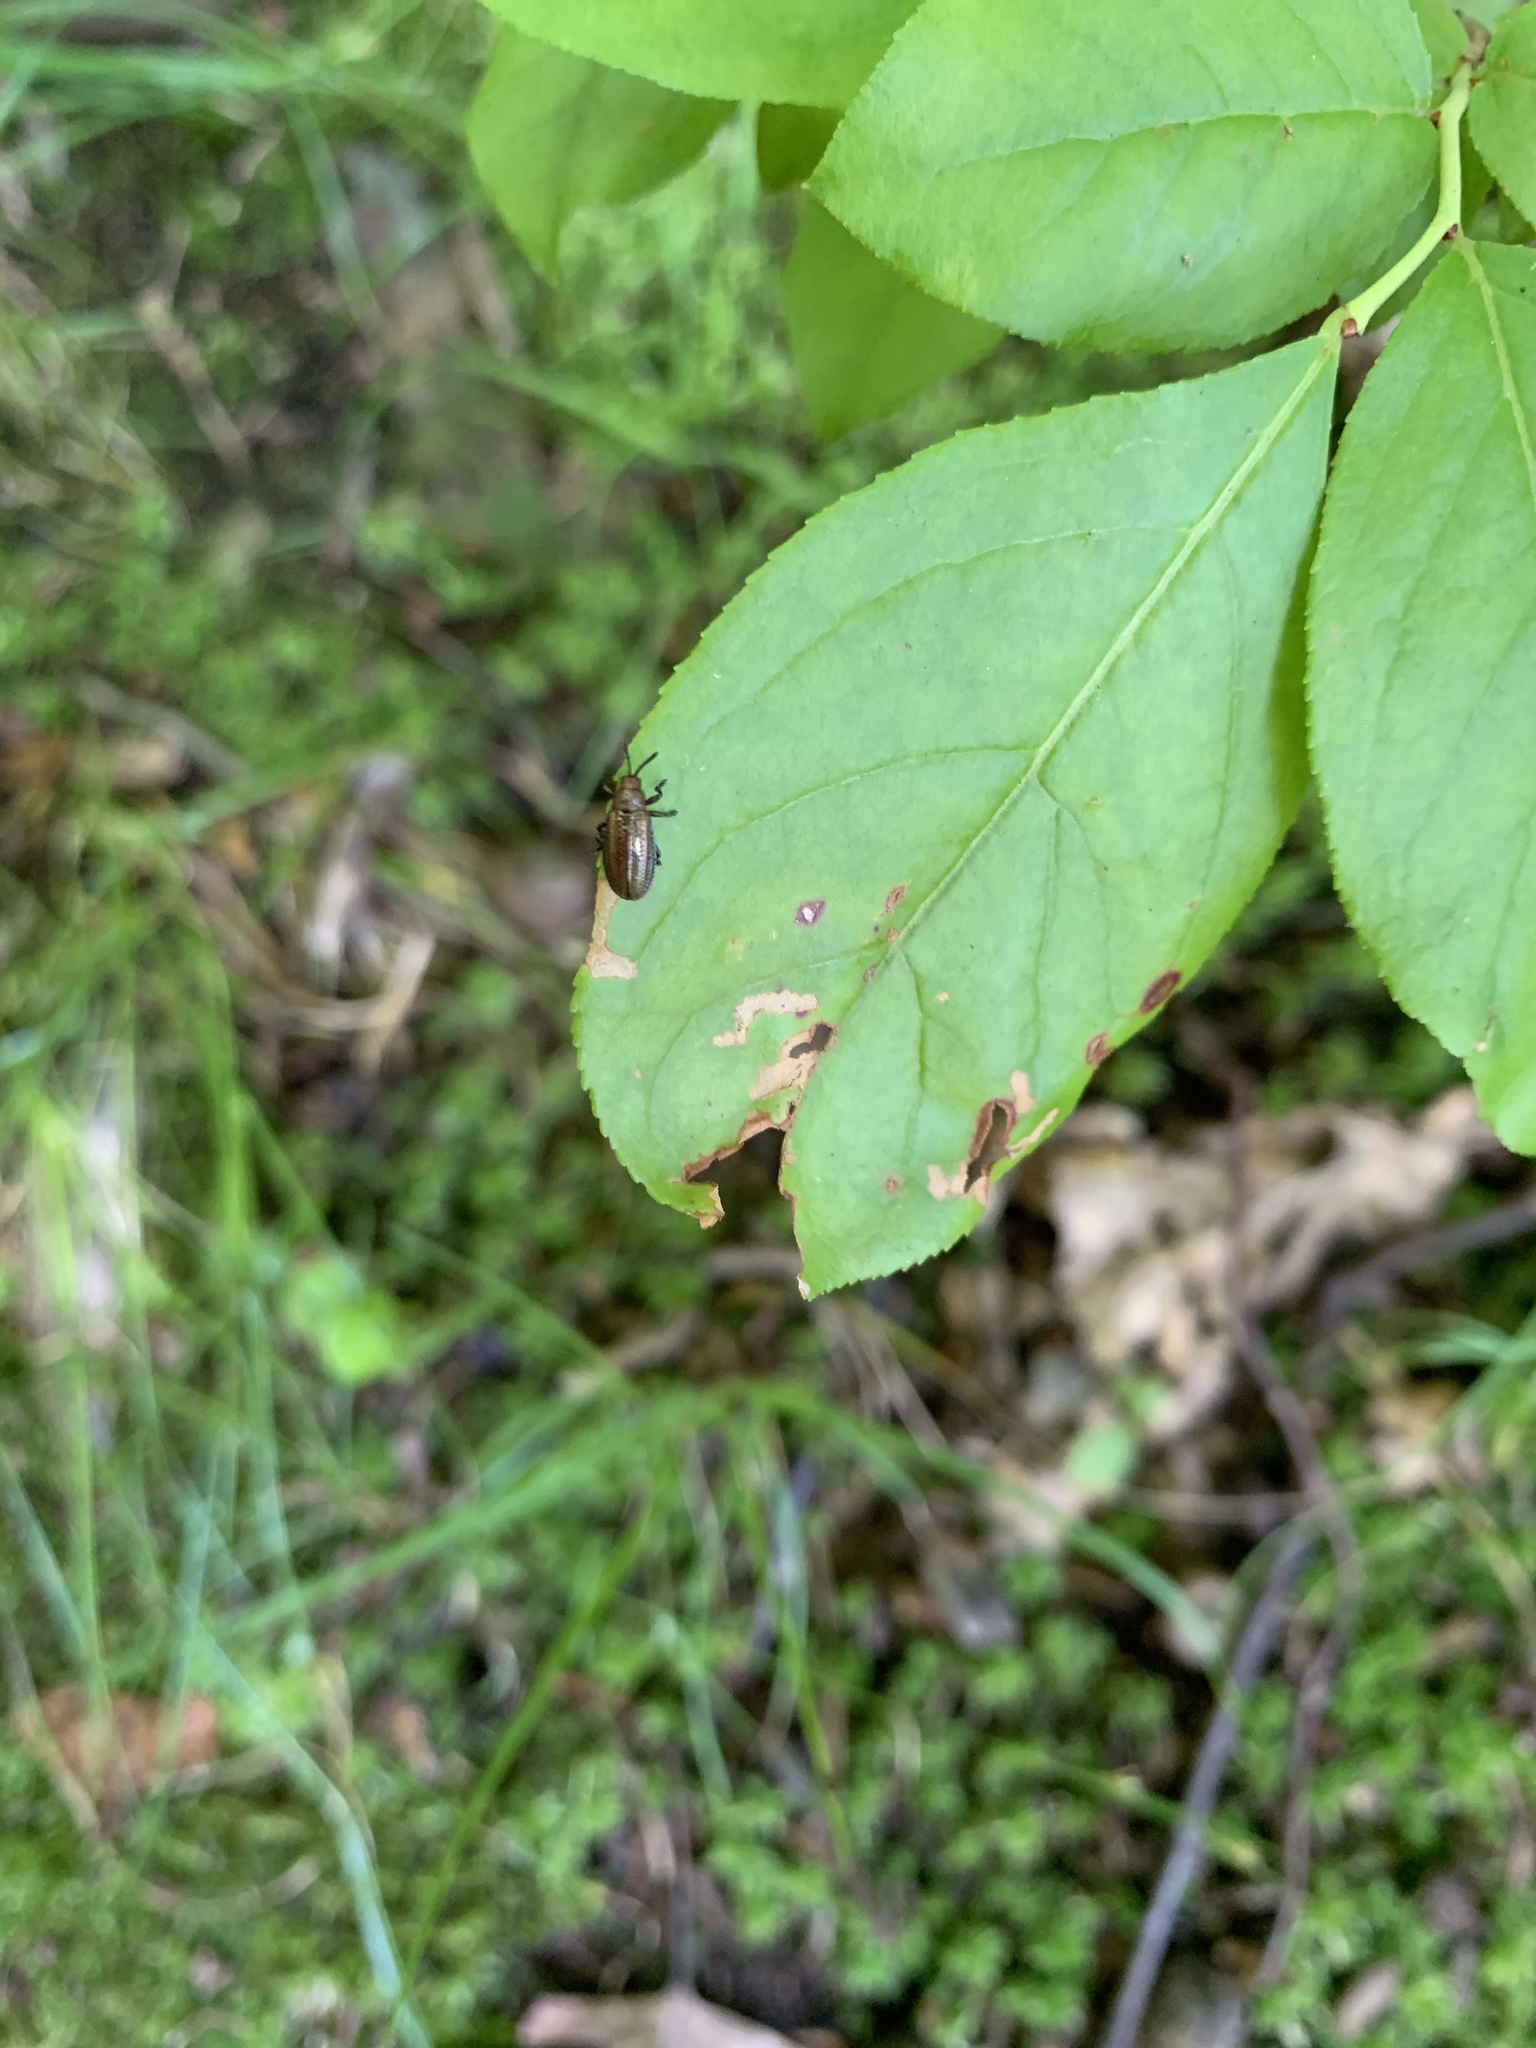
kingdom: Animalia
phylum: Arthropoda
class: Insecta
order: Coleoptera
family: Chrysomelidae
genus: Microrhopala
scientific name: Microrhopala vittata
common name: Goldenrod leaf miner beetle
